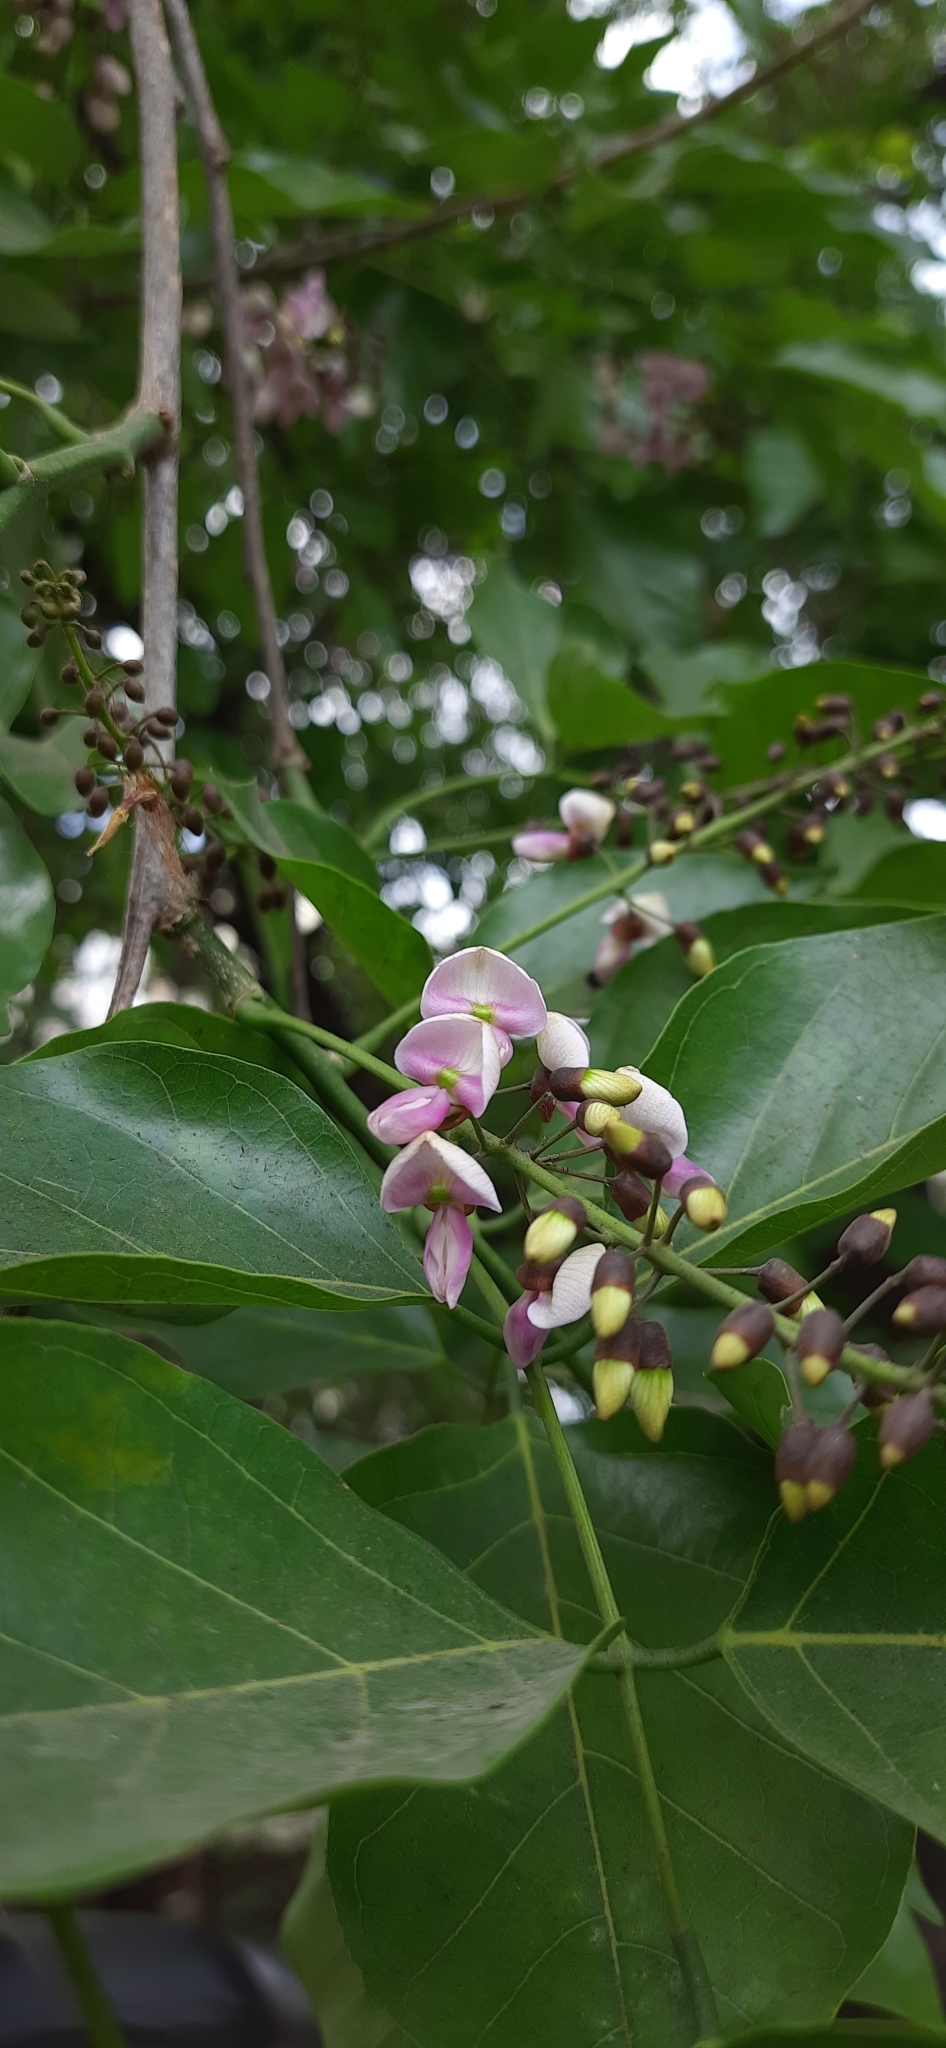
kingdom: Plantae
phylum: Tracheophyta
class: Magnoliopsida
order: Fabales
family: Fabaceae
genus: Pongamia
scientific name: Pongamia pinnata
